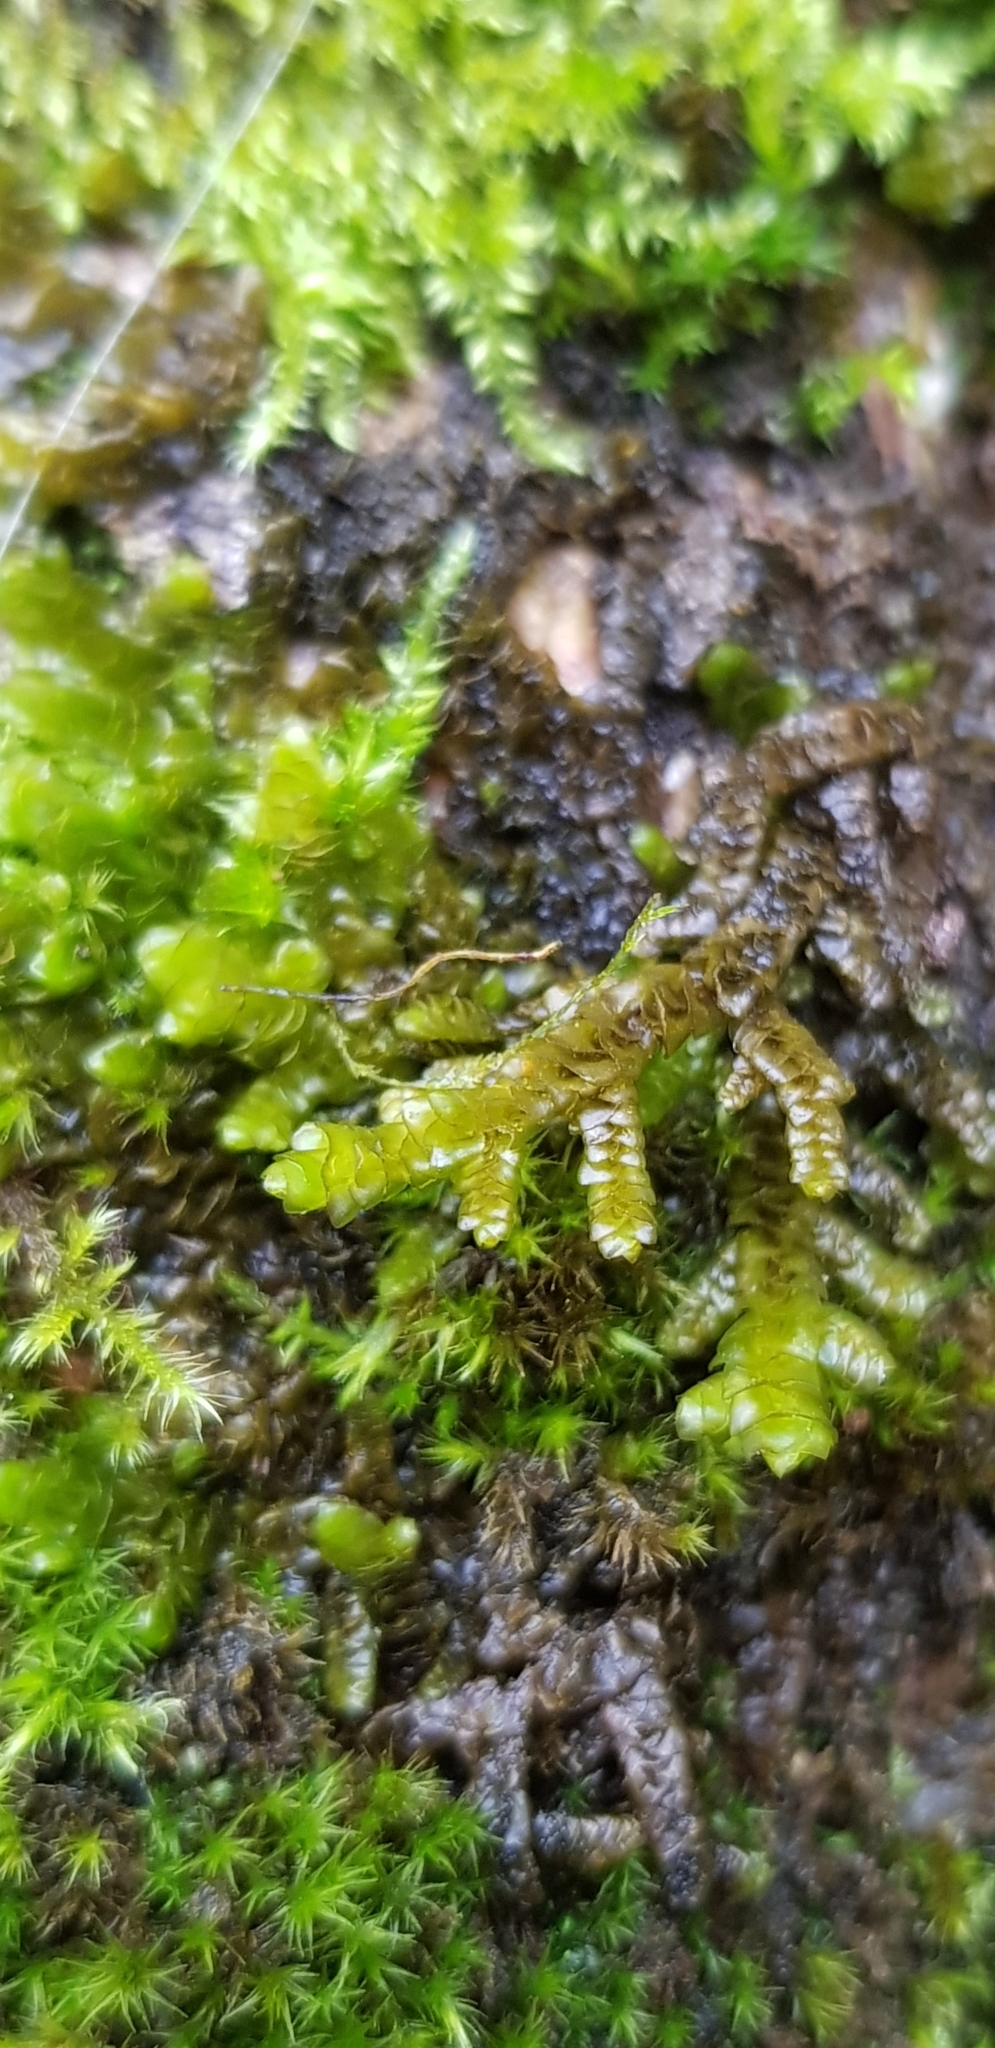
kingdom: Plantae
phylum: Marchantiophyta
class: Jungermanniopsida
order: Porellales
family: Porellaceae
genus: Porella
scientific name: Porella platyphylla
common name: Wall scalewort
